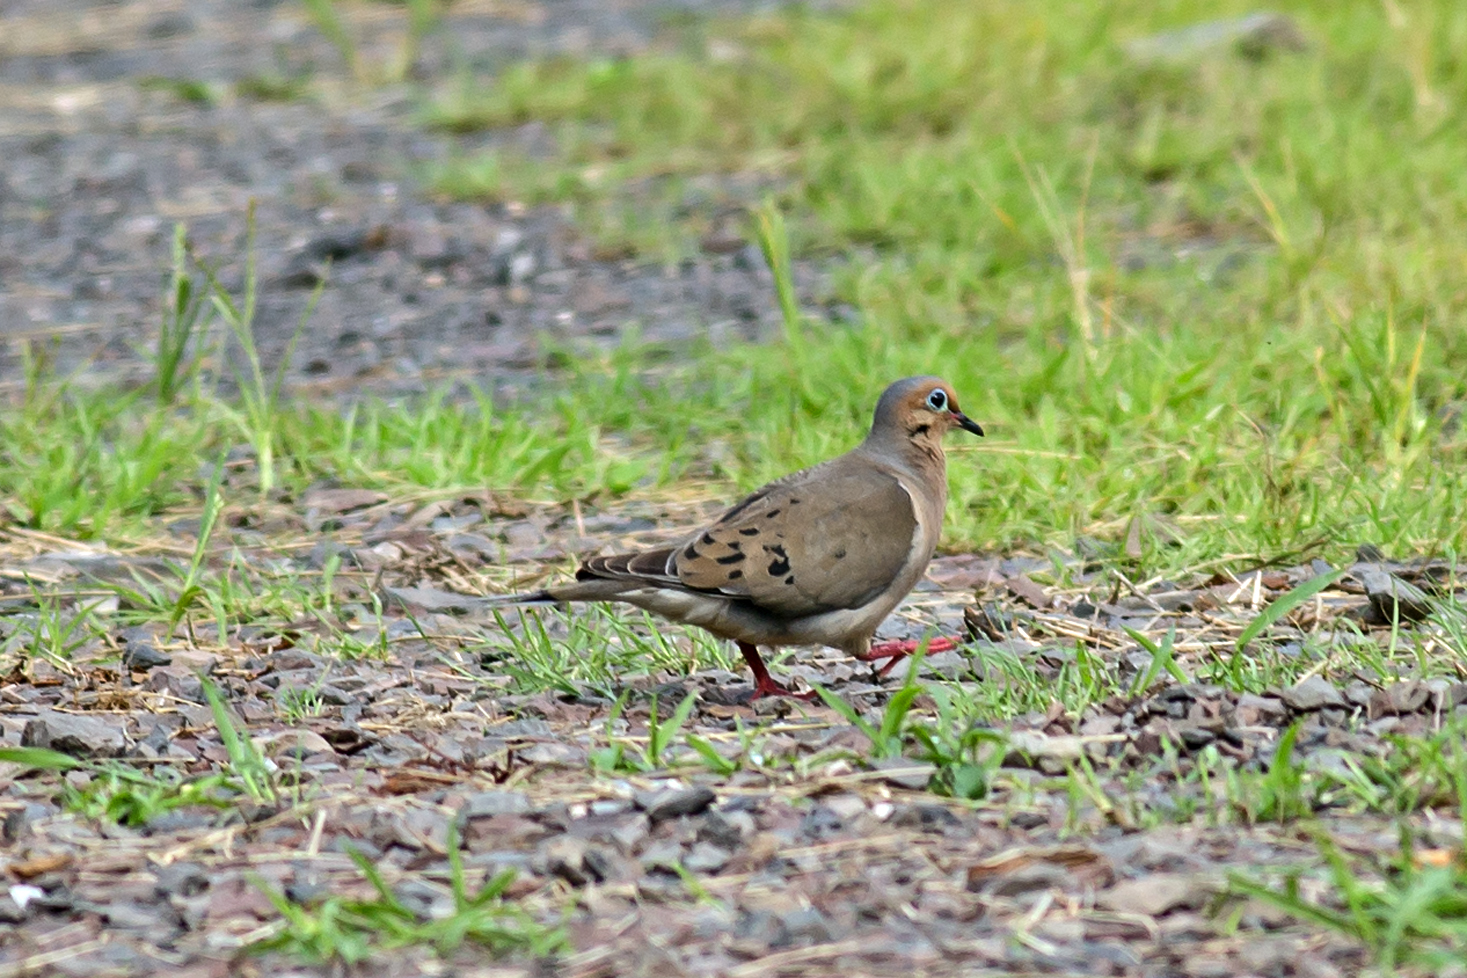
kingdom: Animalia
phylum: Chordata
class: Aves
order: Columbiformes
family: Columbidae
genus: Zenaida
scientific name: Zenaida macroura
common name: Mourning dove
